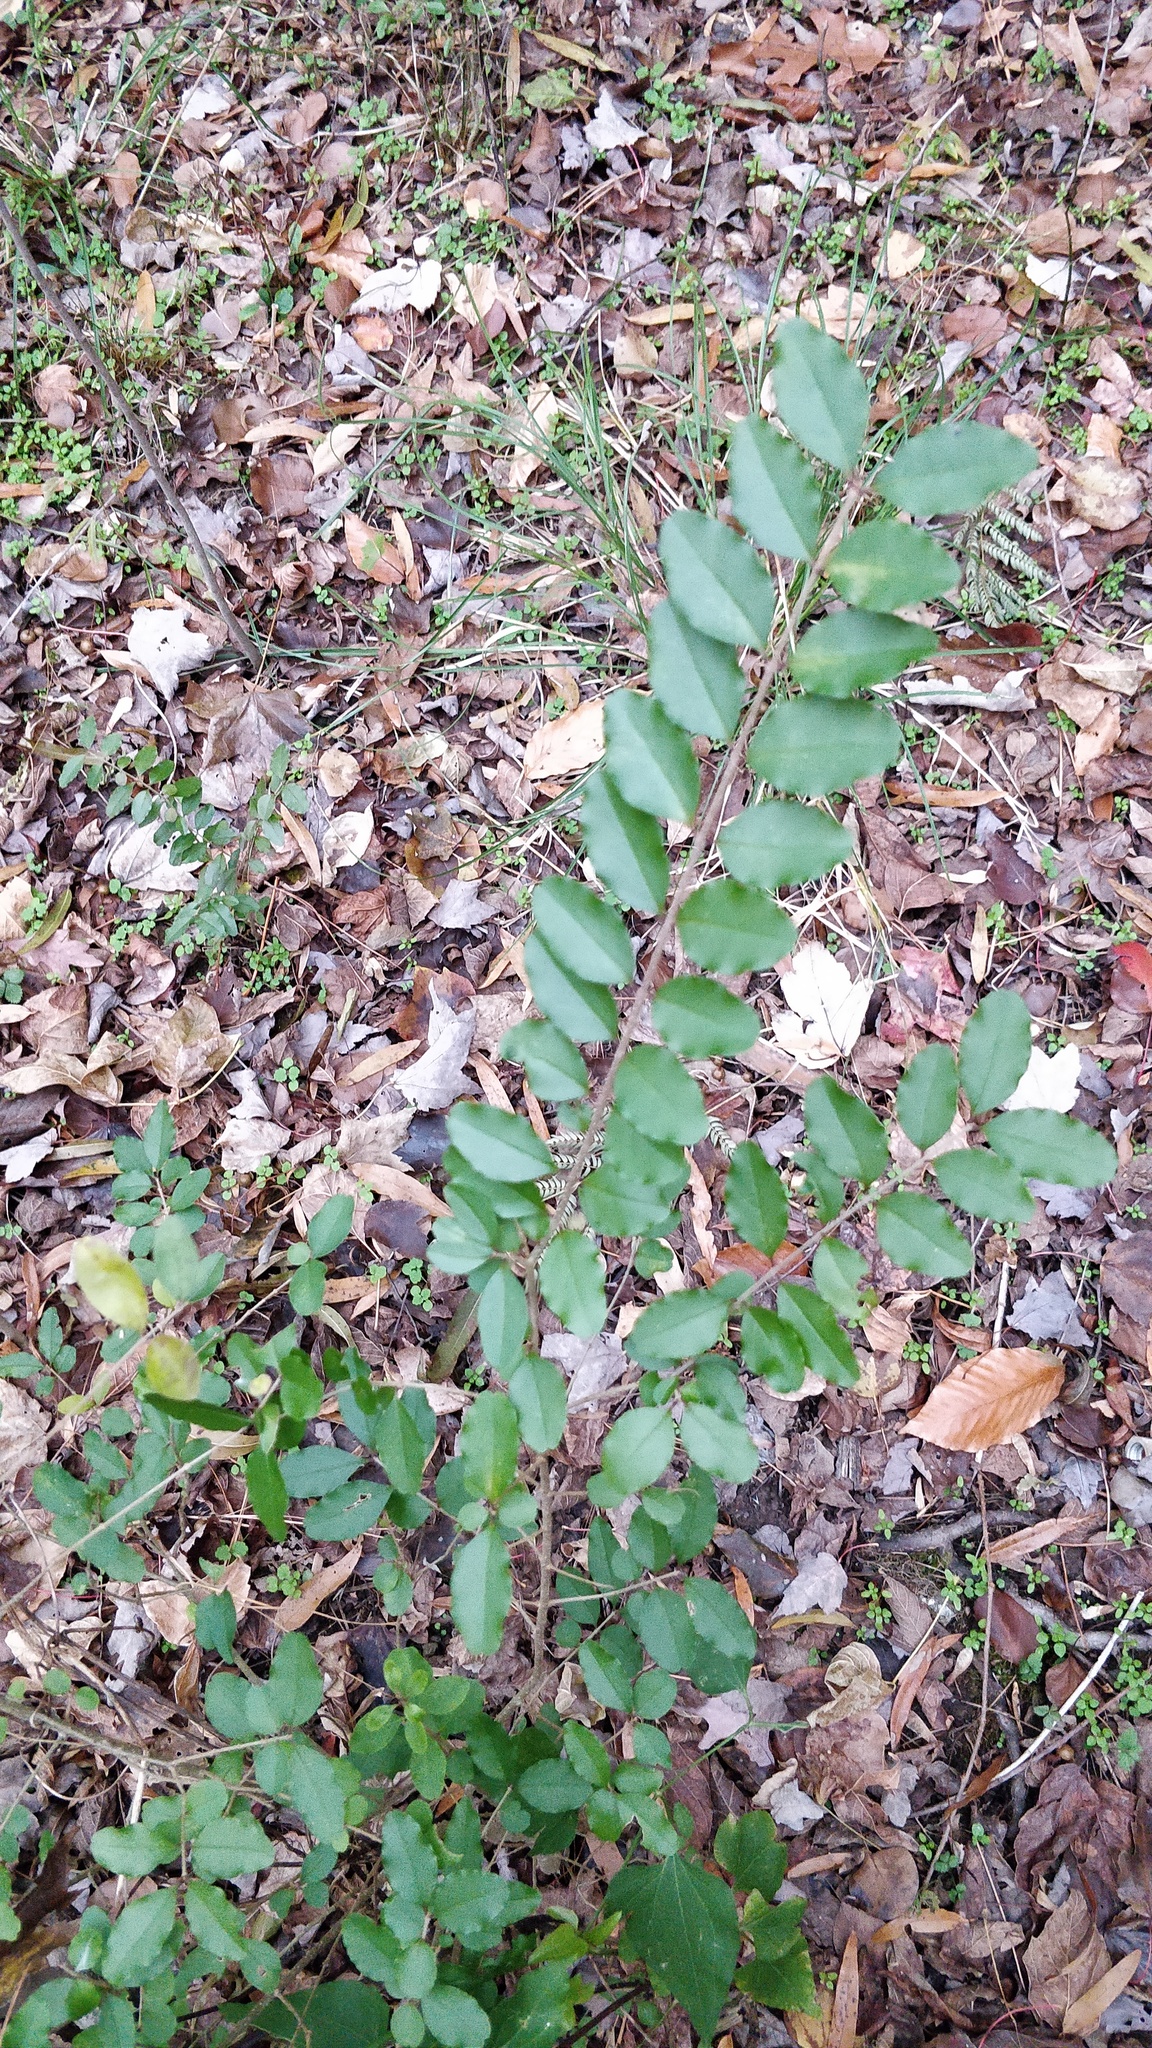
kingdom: Plantae
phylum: Tracheophyta
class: Magnoliopsida
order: Lamiales
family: Oleaceae
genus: Ligustrum
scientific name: Ligustrum sinense
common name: Chinese privet
